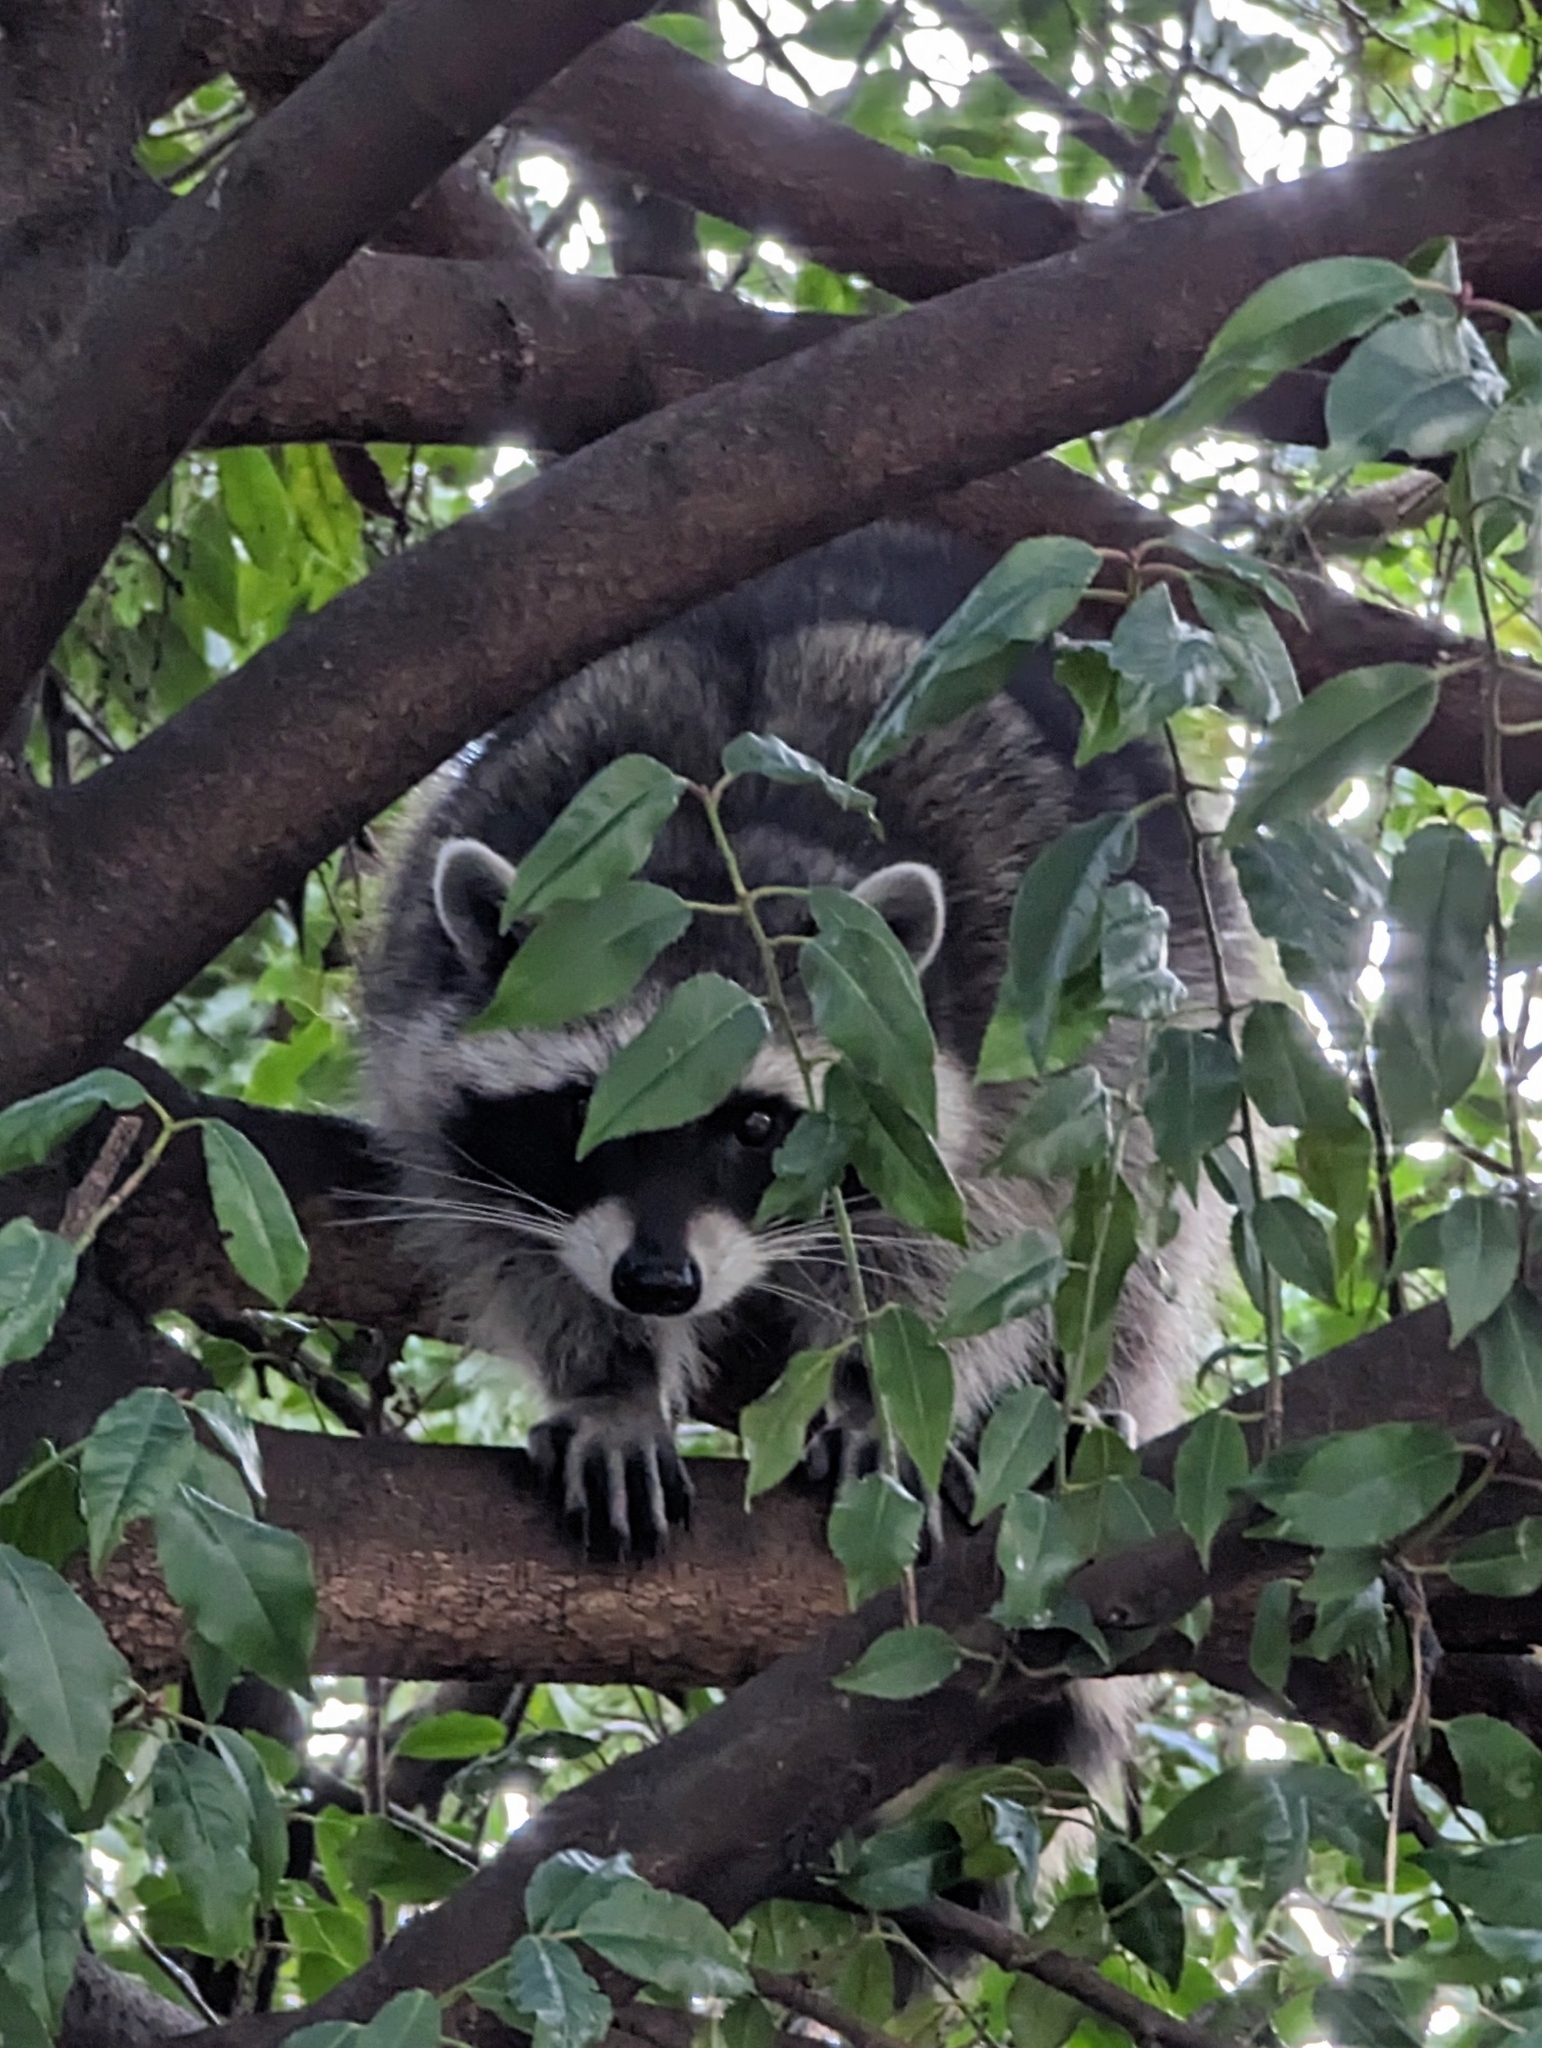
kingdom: Animalia
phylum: Chordata
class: Mammalia
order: Carnivora
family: Procyonidae
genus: Procyon
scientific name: Procyon lotor
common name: Raccoon
